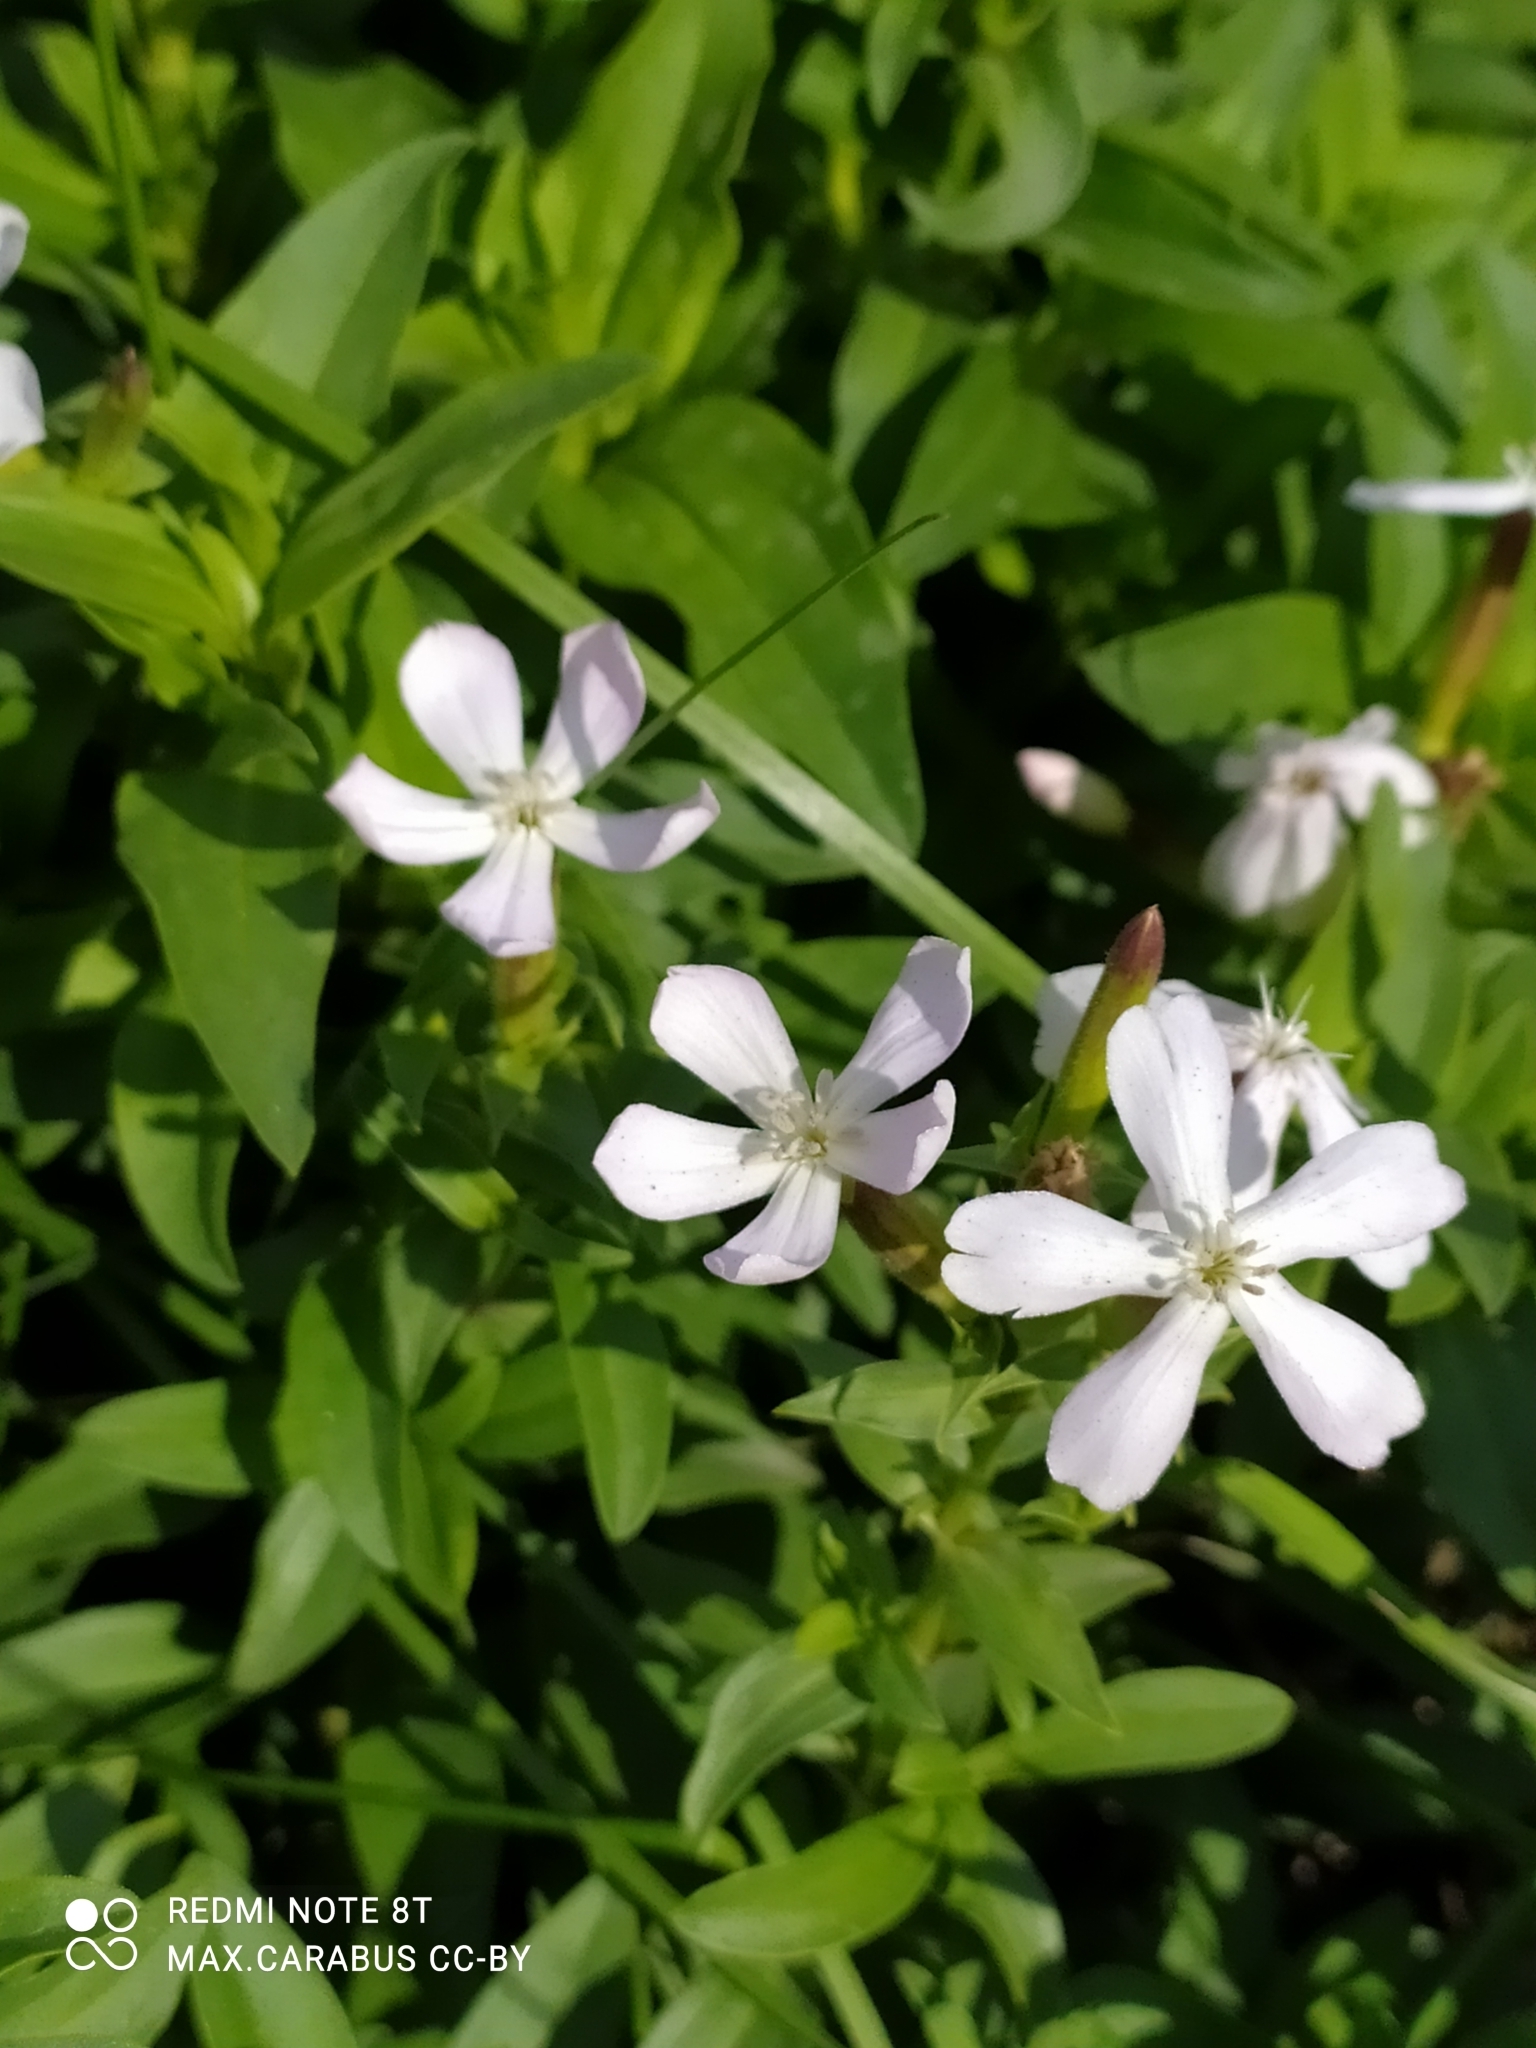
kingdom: Plantae
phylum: Tracheophyta
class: Magnoliopsida
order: Caryophyllales
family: Caryophyllaceae
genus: Saponaria
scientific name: Saponaria officinalis
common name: Soapwort
